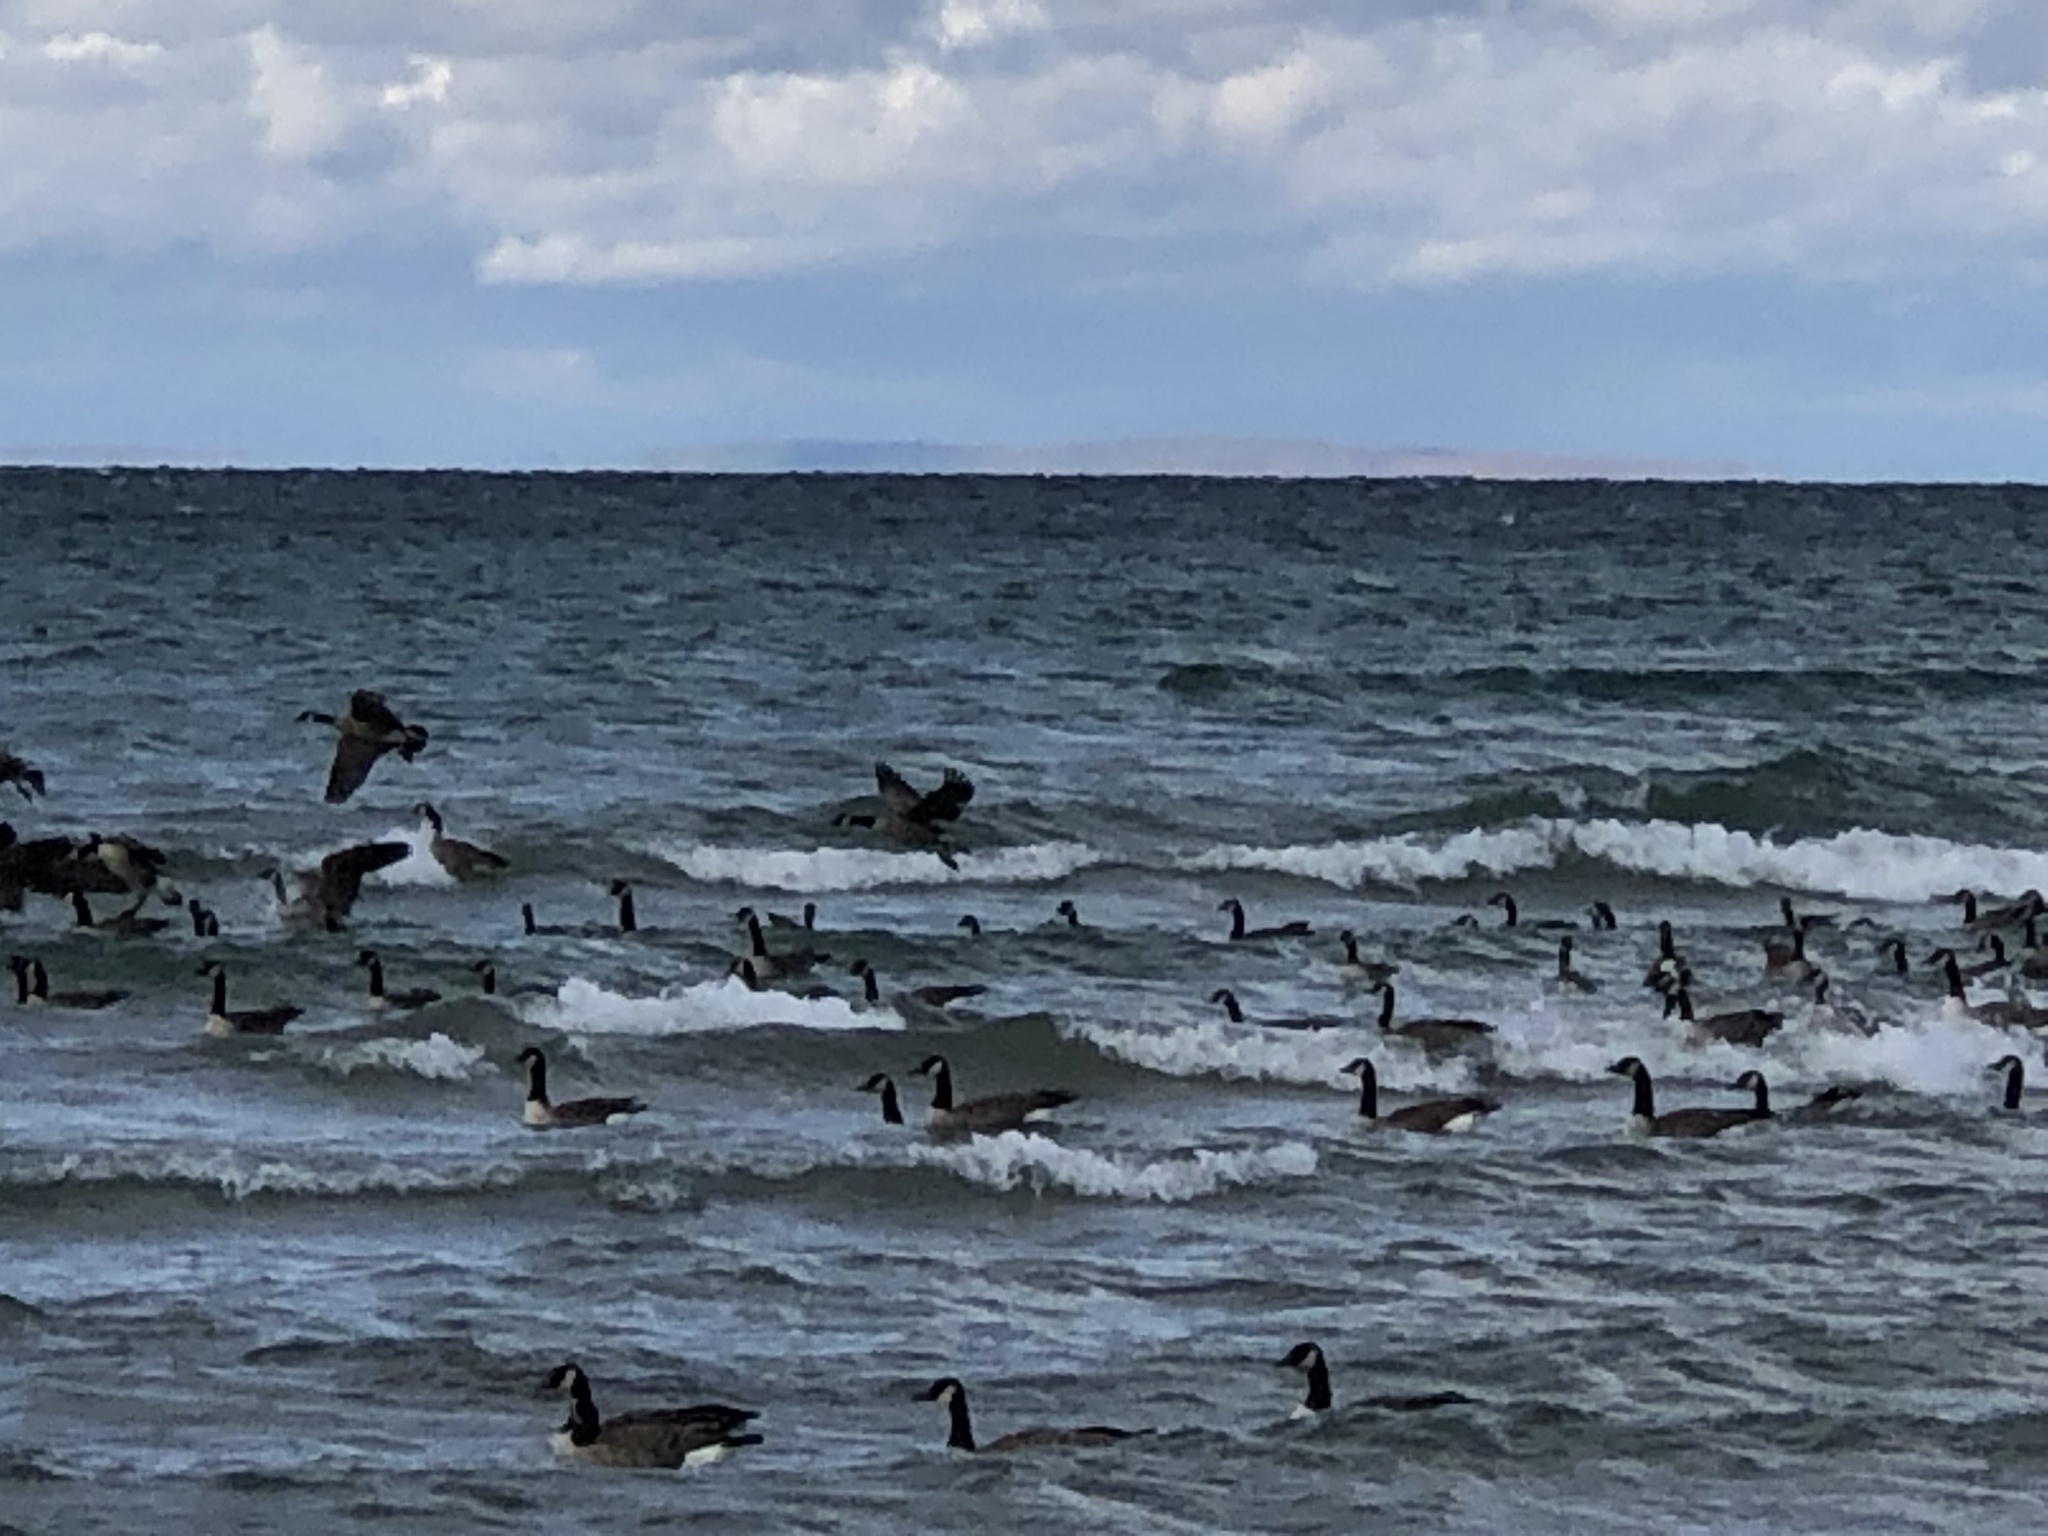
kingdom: Animalia
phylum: Chordata
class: Aves
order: Anseriformes
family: Anatidae
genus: Branta
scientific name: Branta canadensis
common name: Canada goose
